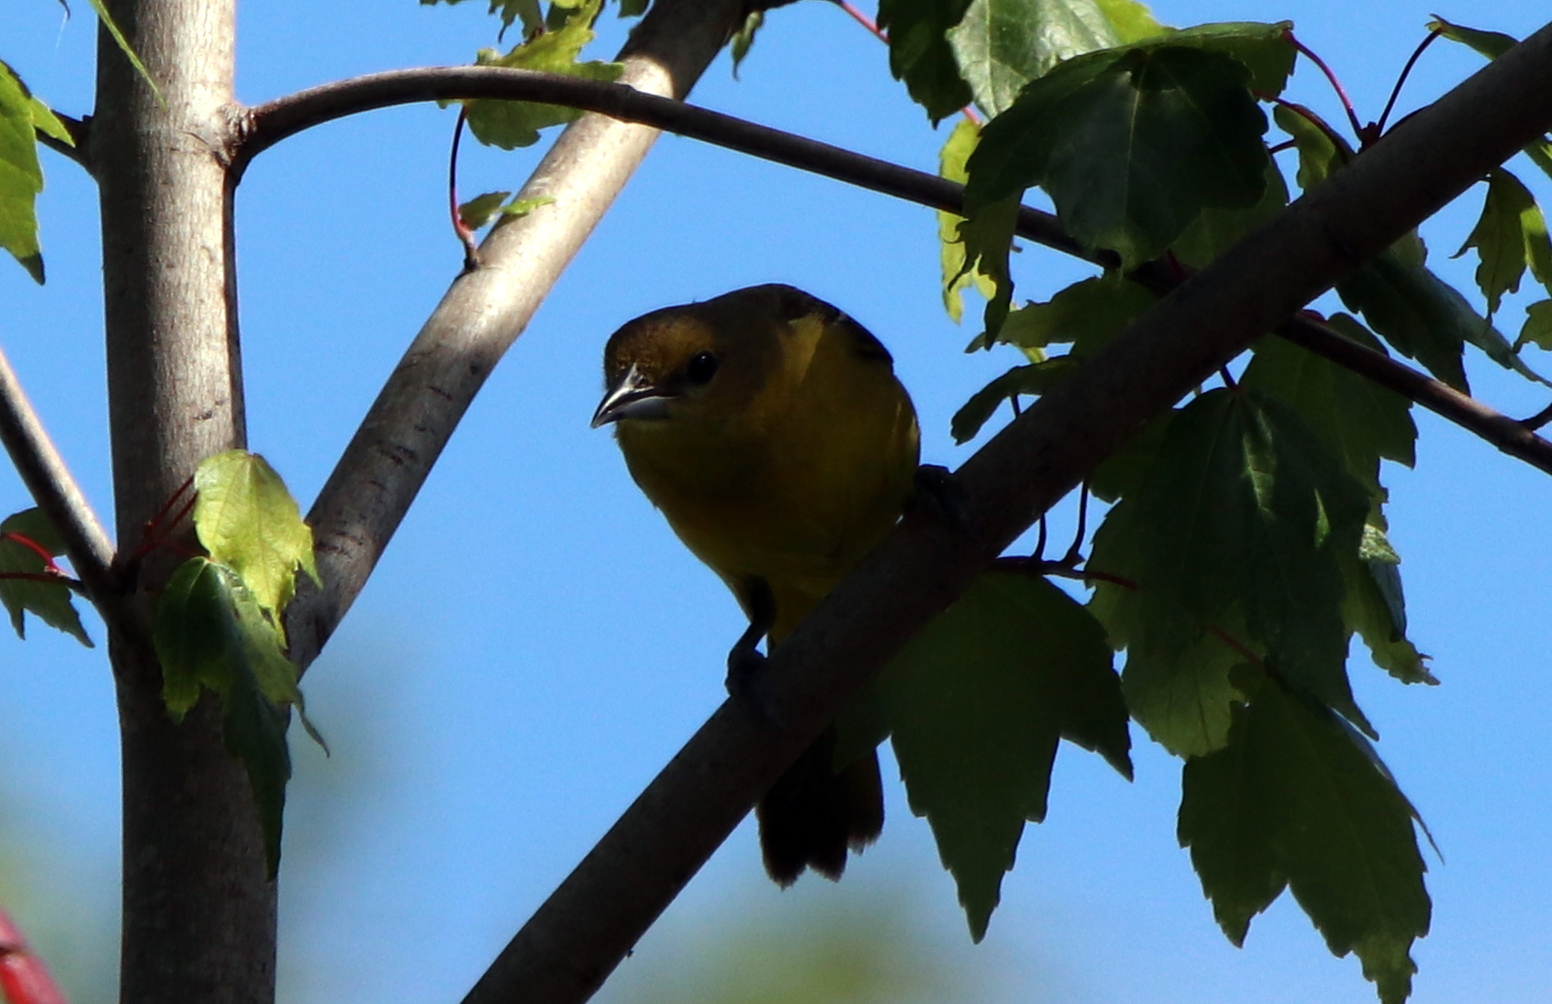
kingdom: Animalia
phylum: Chordata
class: Aves
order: Passeriformes
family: Icteridae
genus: Icterus
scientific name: Icterus spurius
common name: Orchard oriole
